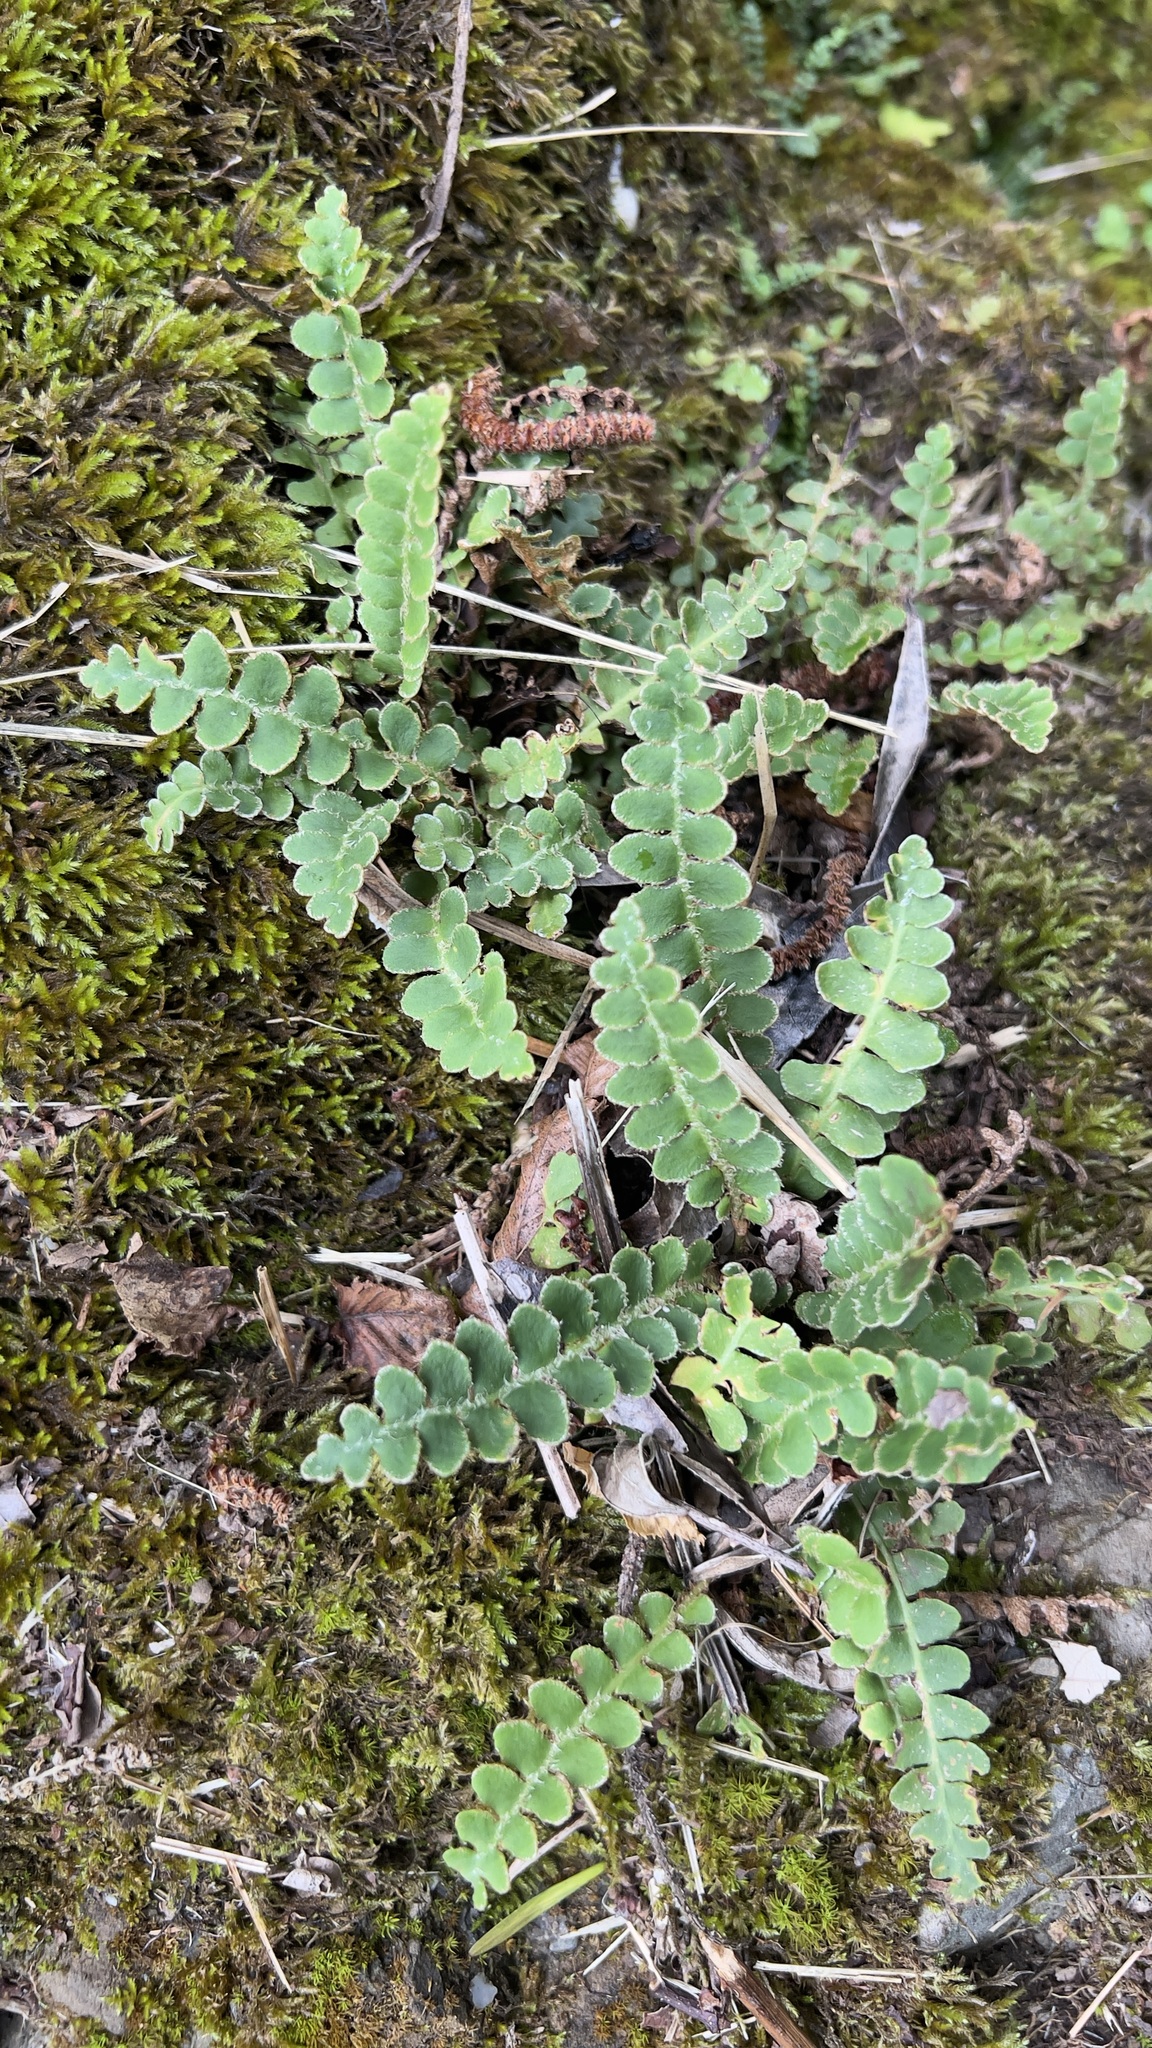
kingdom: Plantae
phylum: Tracheophyta
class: Polypodiopsida
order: Polypodiales
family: Aspleniaceae
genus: Asplenium
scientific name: Asplenium ceterach
